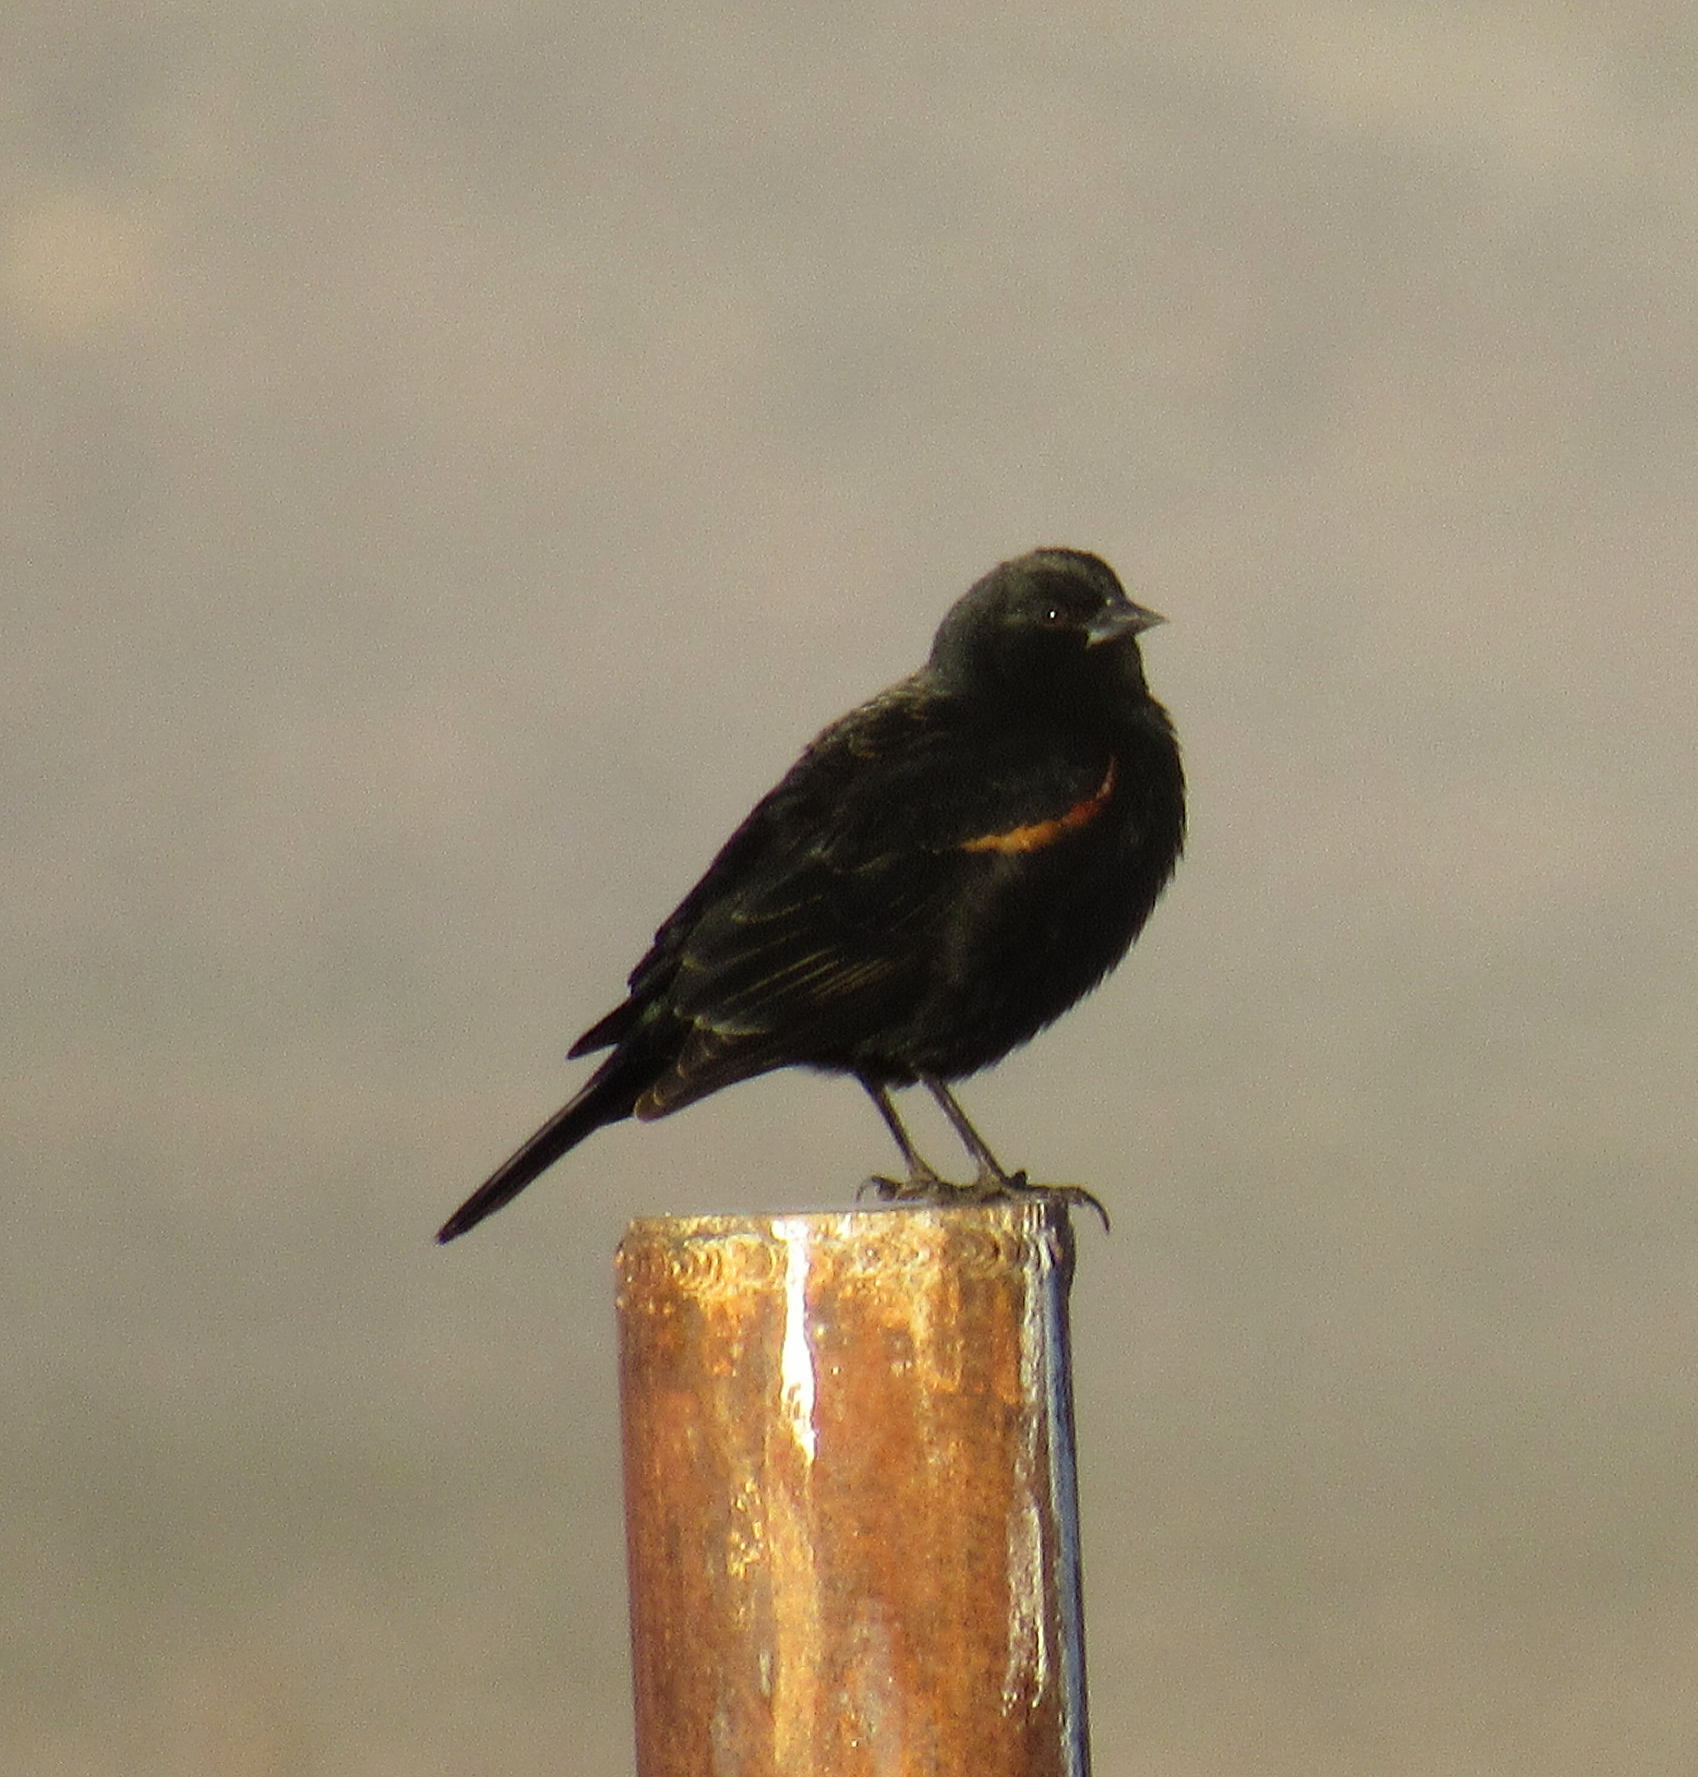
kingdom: Animalia
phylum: Chordata
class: Aves
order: Passeriformes
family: Icteridae
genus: Agelaius
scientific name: Agelaius phoeniceus
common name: Red-winged blackbird
